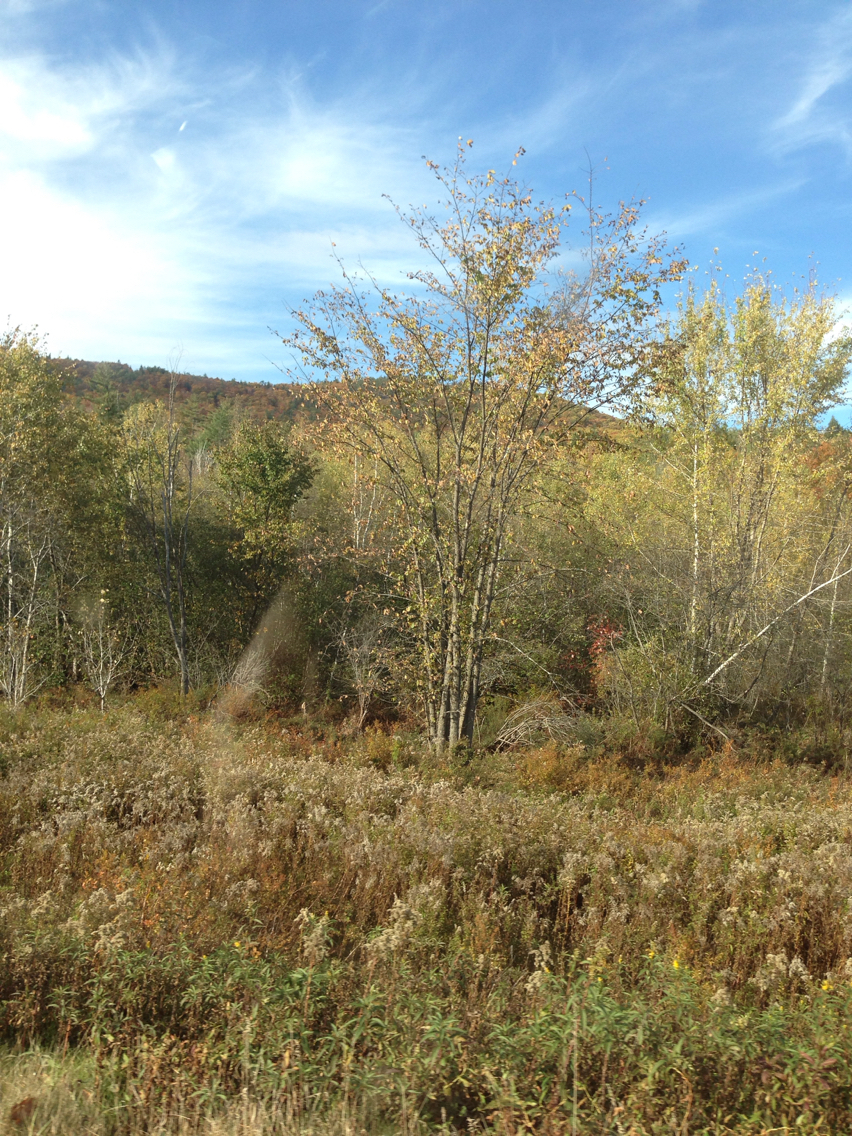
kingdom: Plantae
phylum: Tracheophyta
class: Magnoliopsida
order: Rosales
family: Ulmaceae
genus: Ulmus
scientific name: Ulmus americana
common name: American elm
